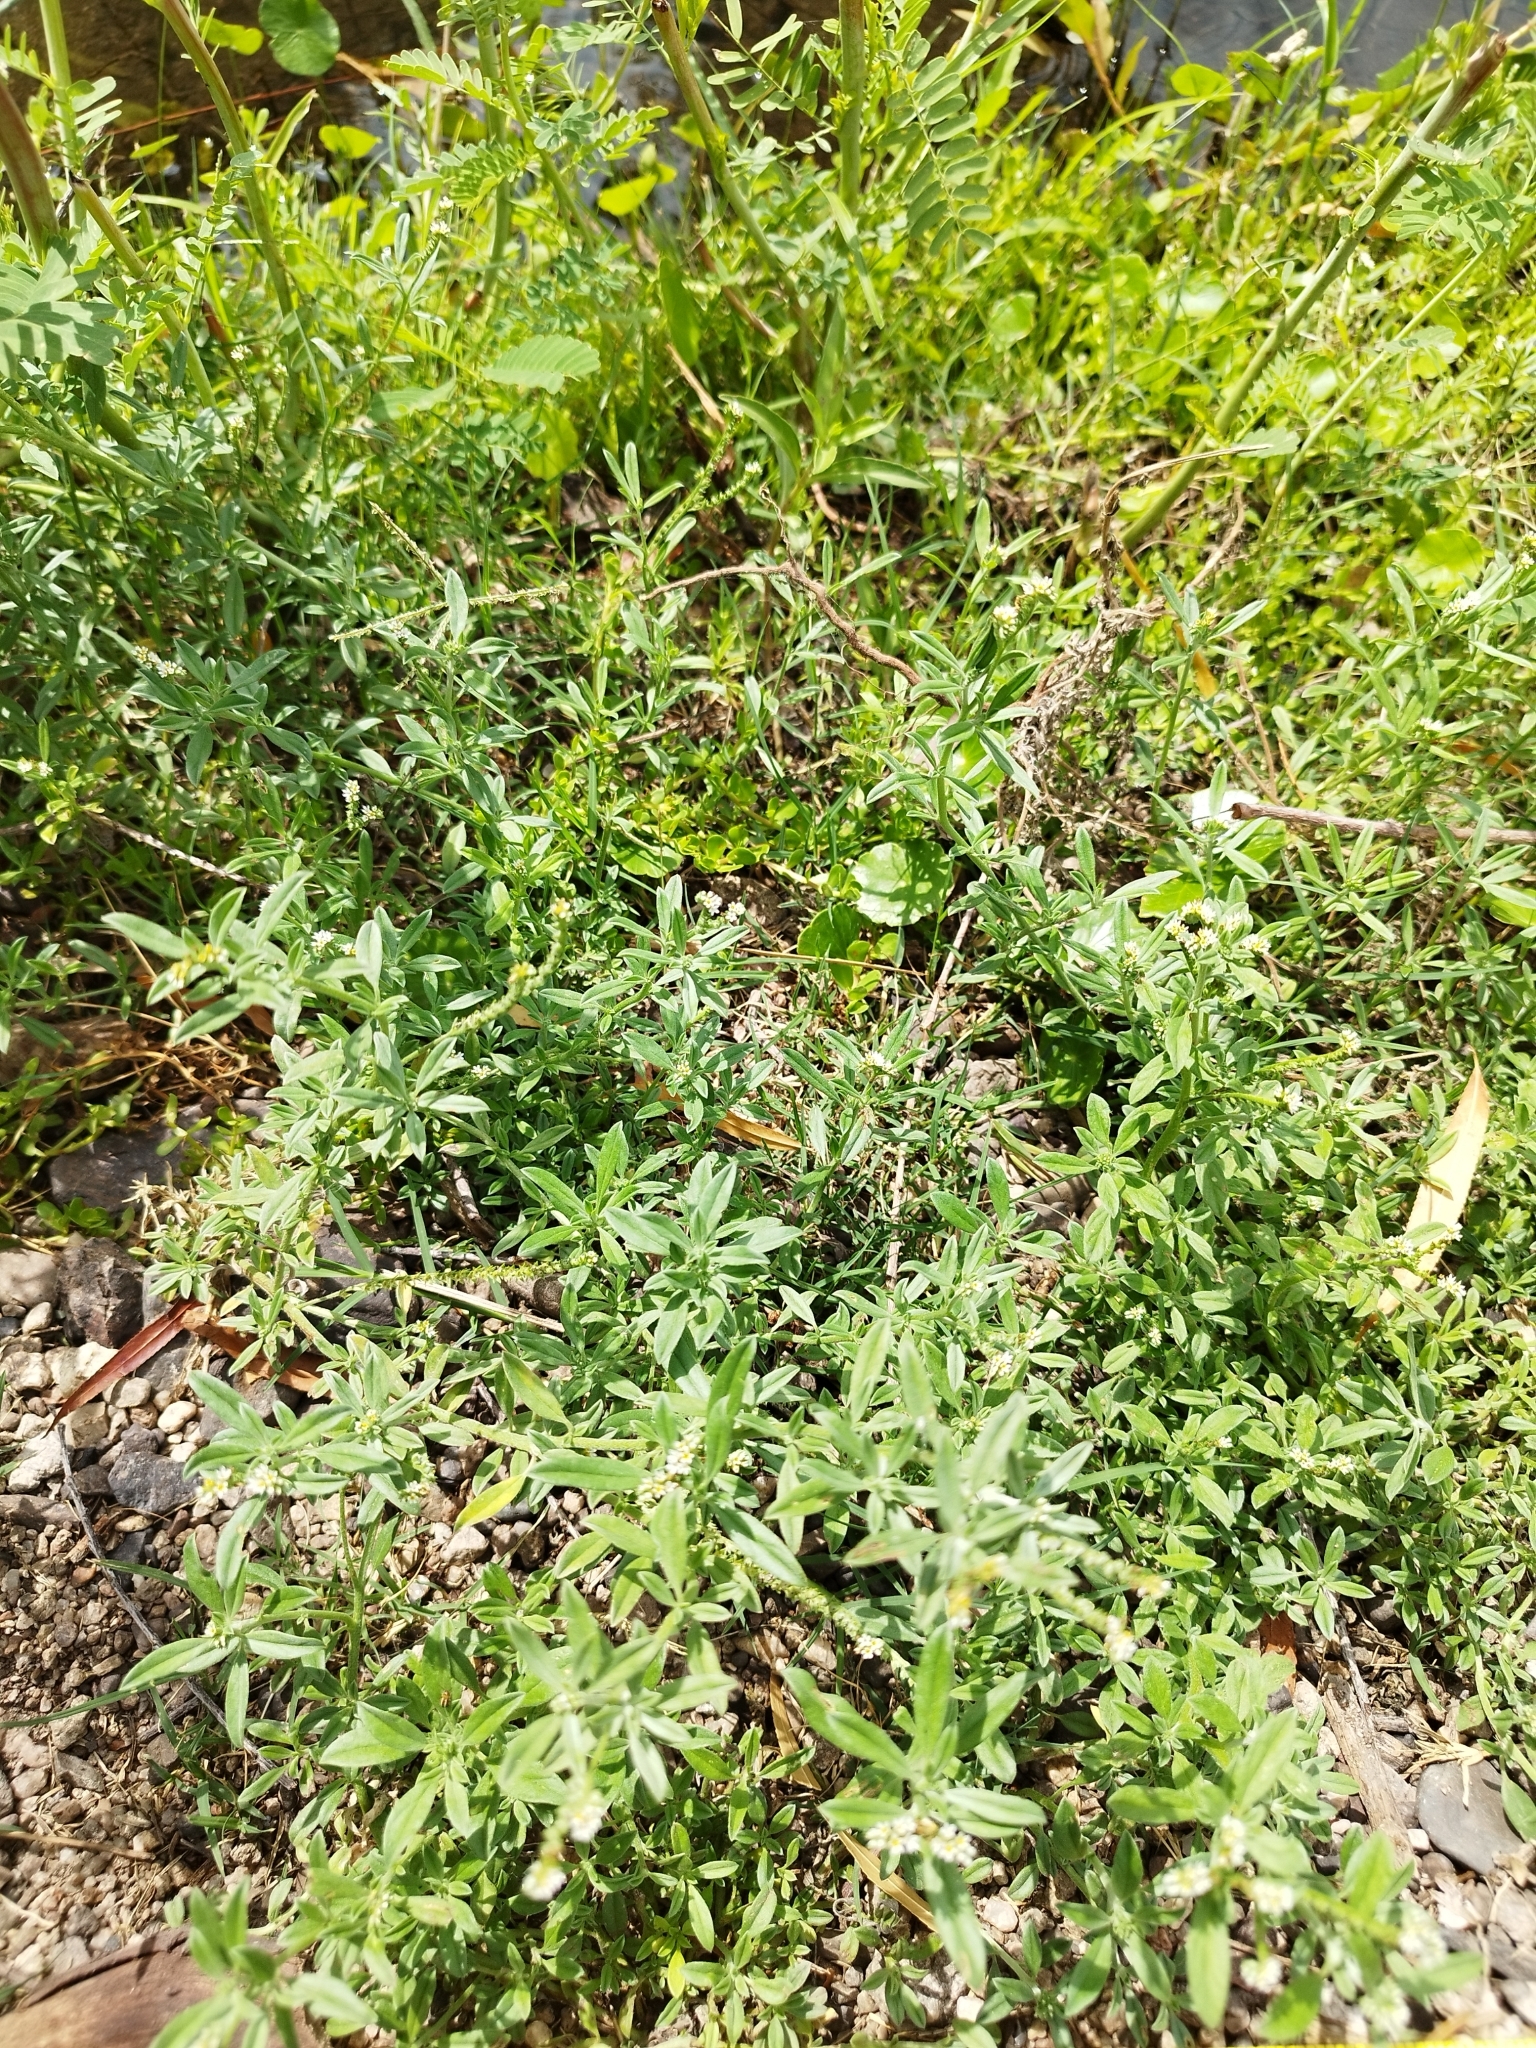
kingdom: Plantae
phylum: Tracheophyta
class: Magnoliopsida
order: Boraginales
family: Heliotropiaceae
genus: Euploca
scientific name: Euploca procumbens
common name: Fourspike heliotrope
